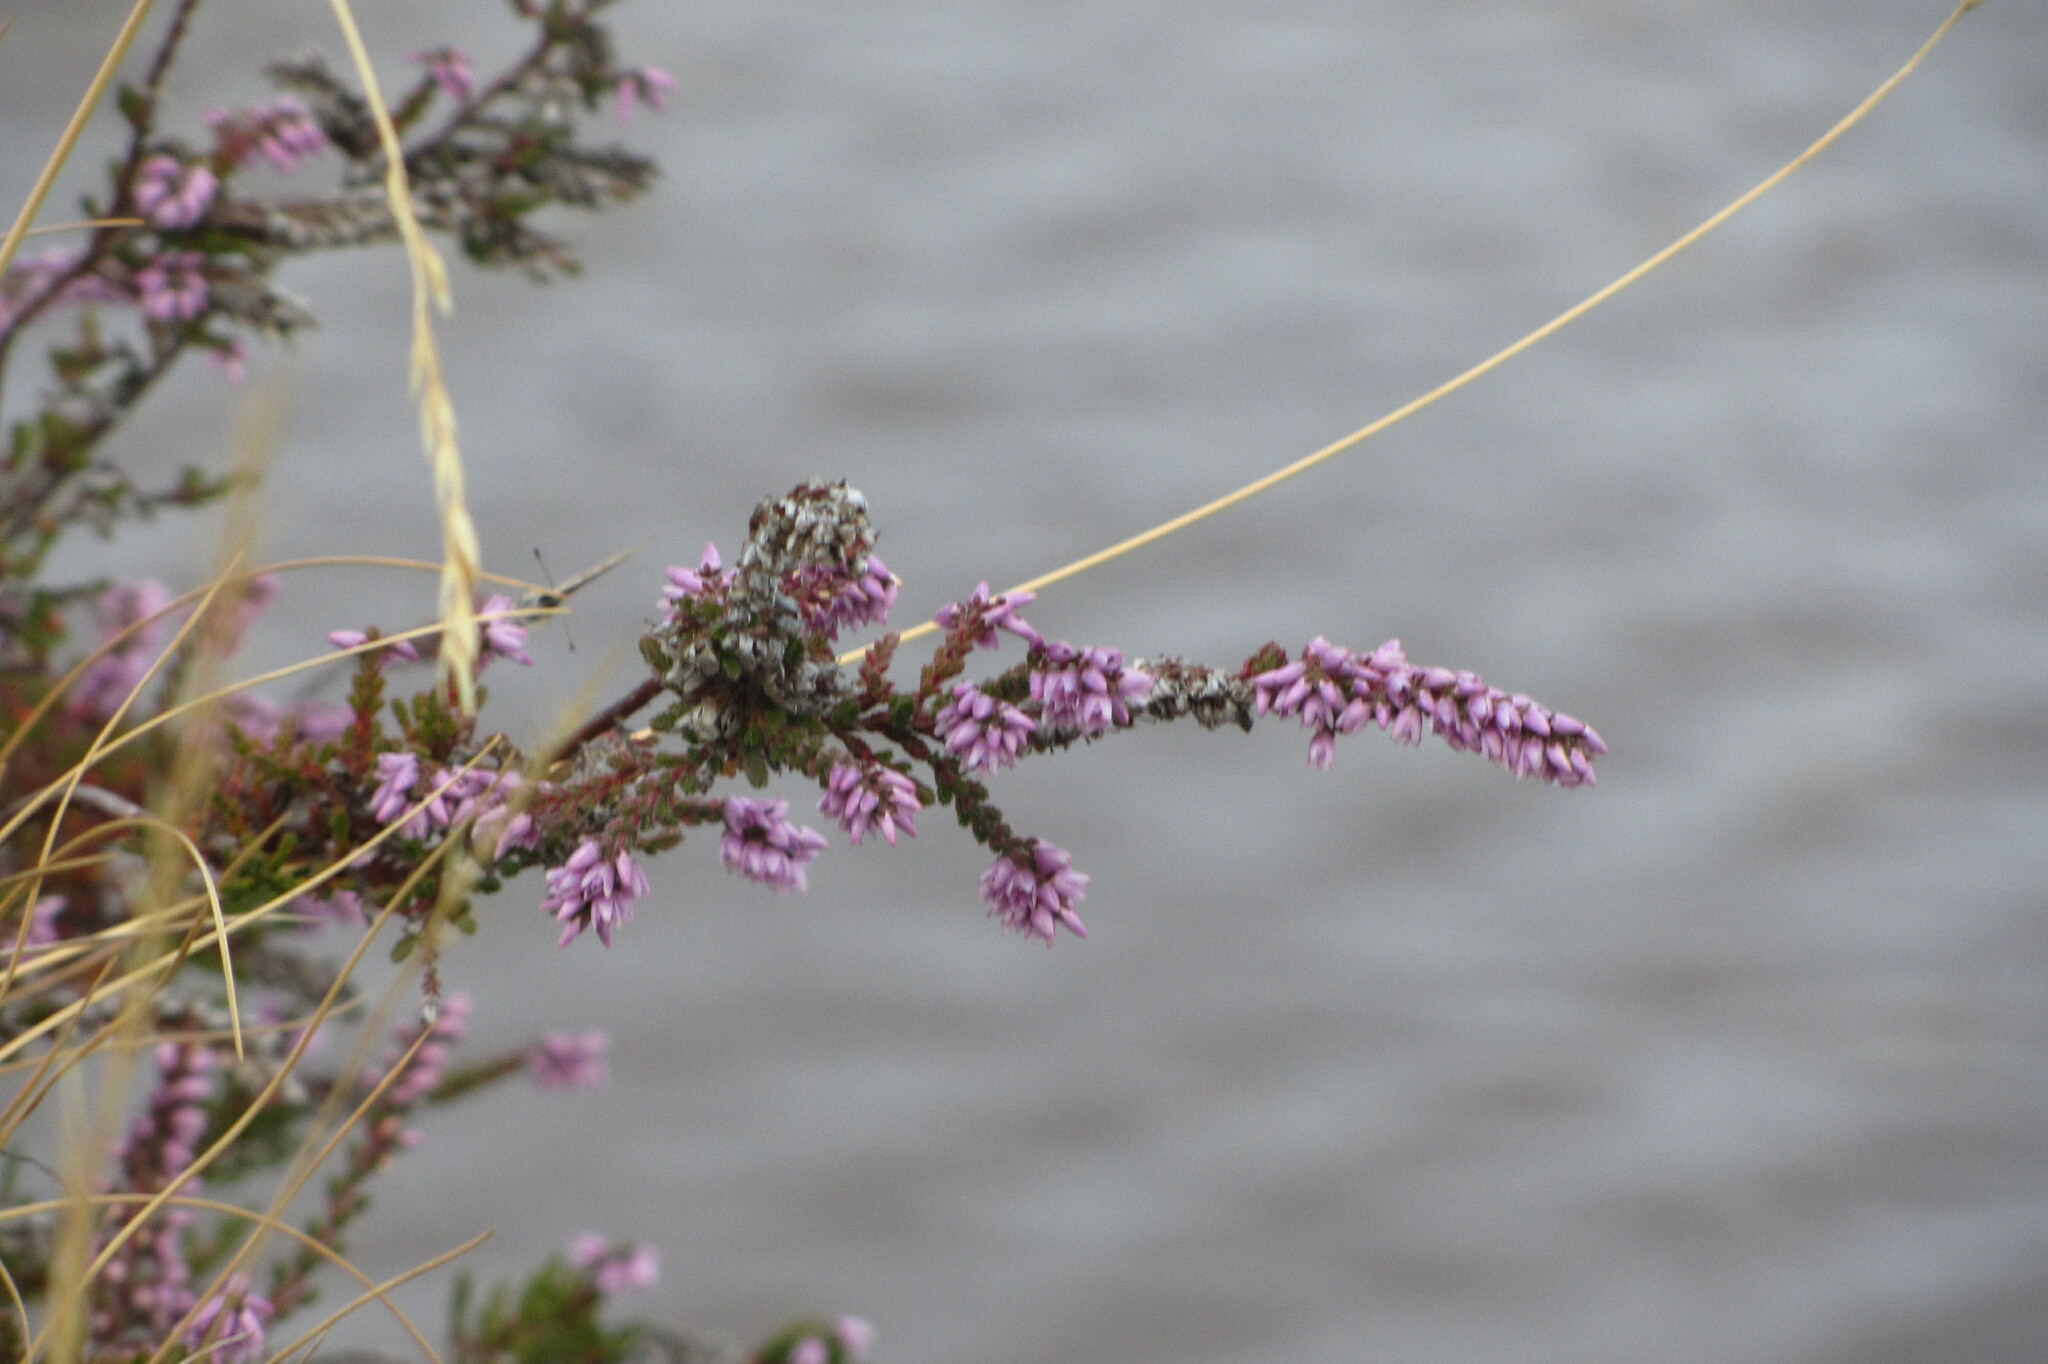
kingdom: Plantae
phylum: Tracheophyta
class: Magnoliopsida
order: Ericales
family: Ericaceae
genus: Calluna
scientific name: Calluna vulgaris
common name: Heather
